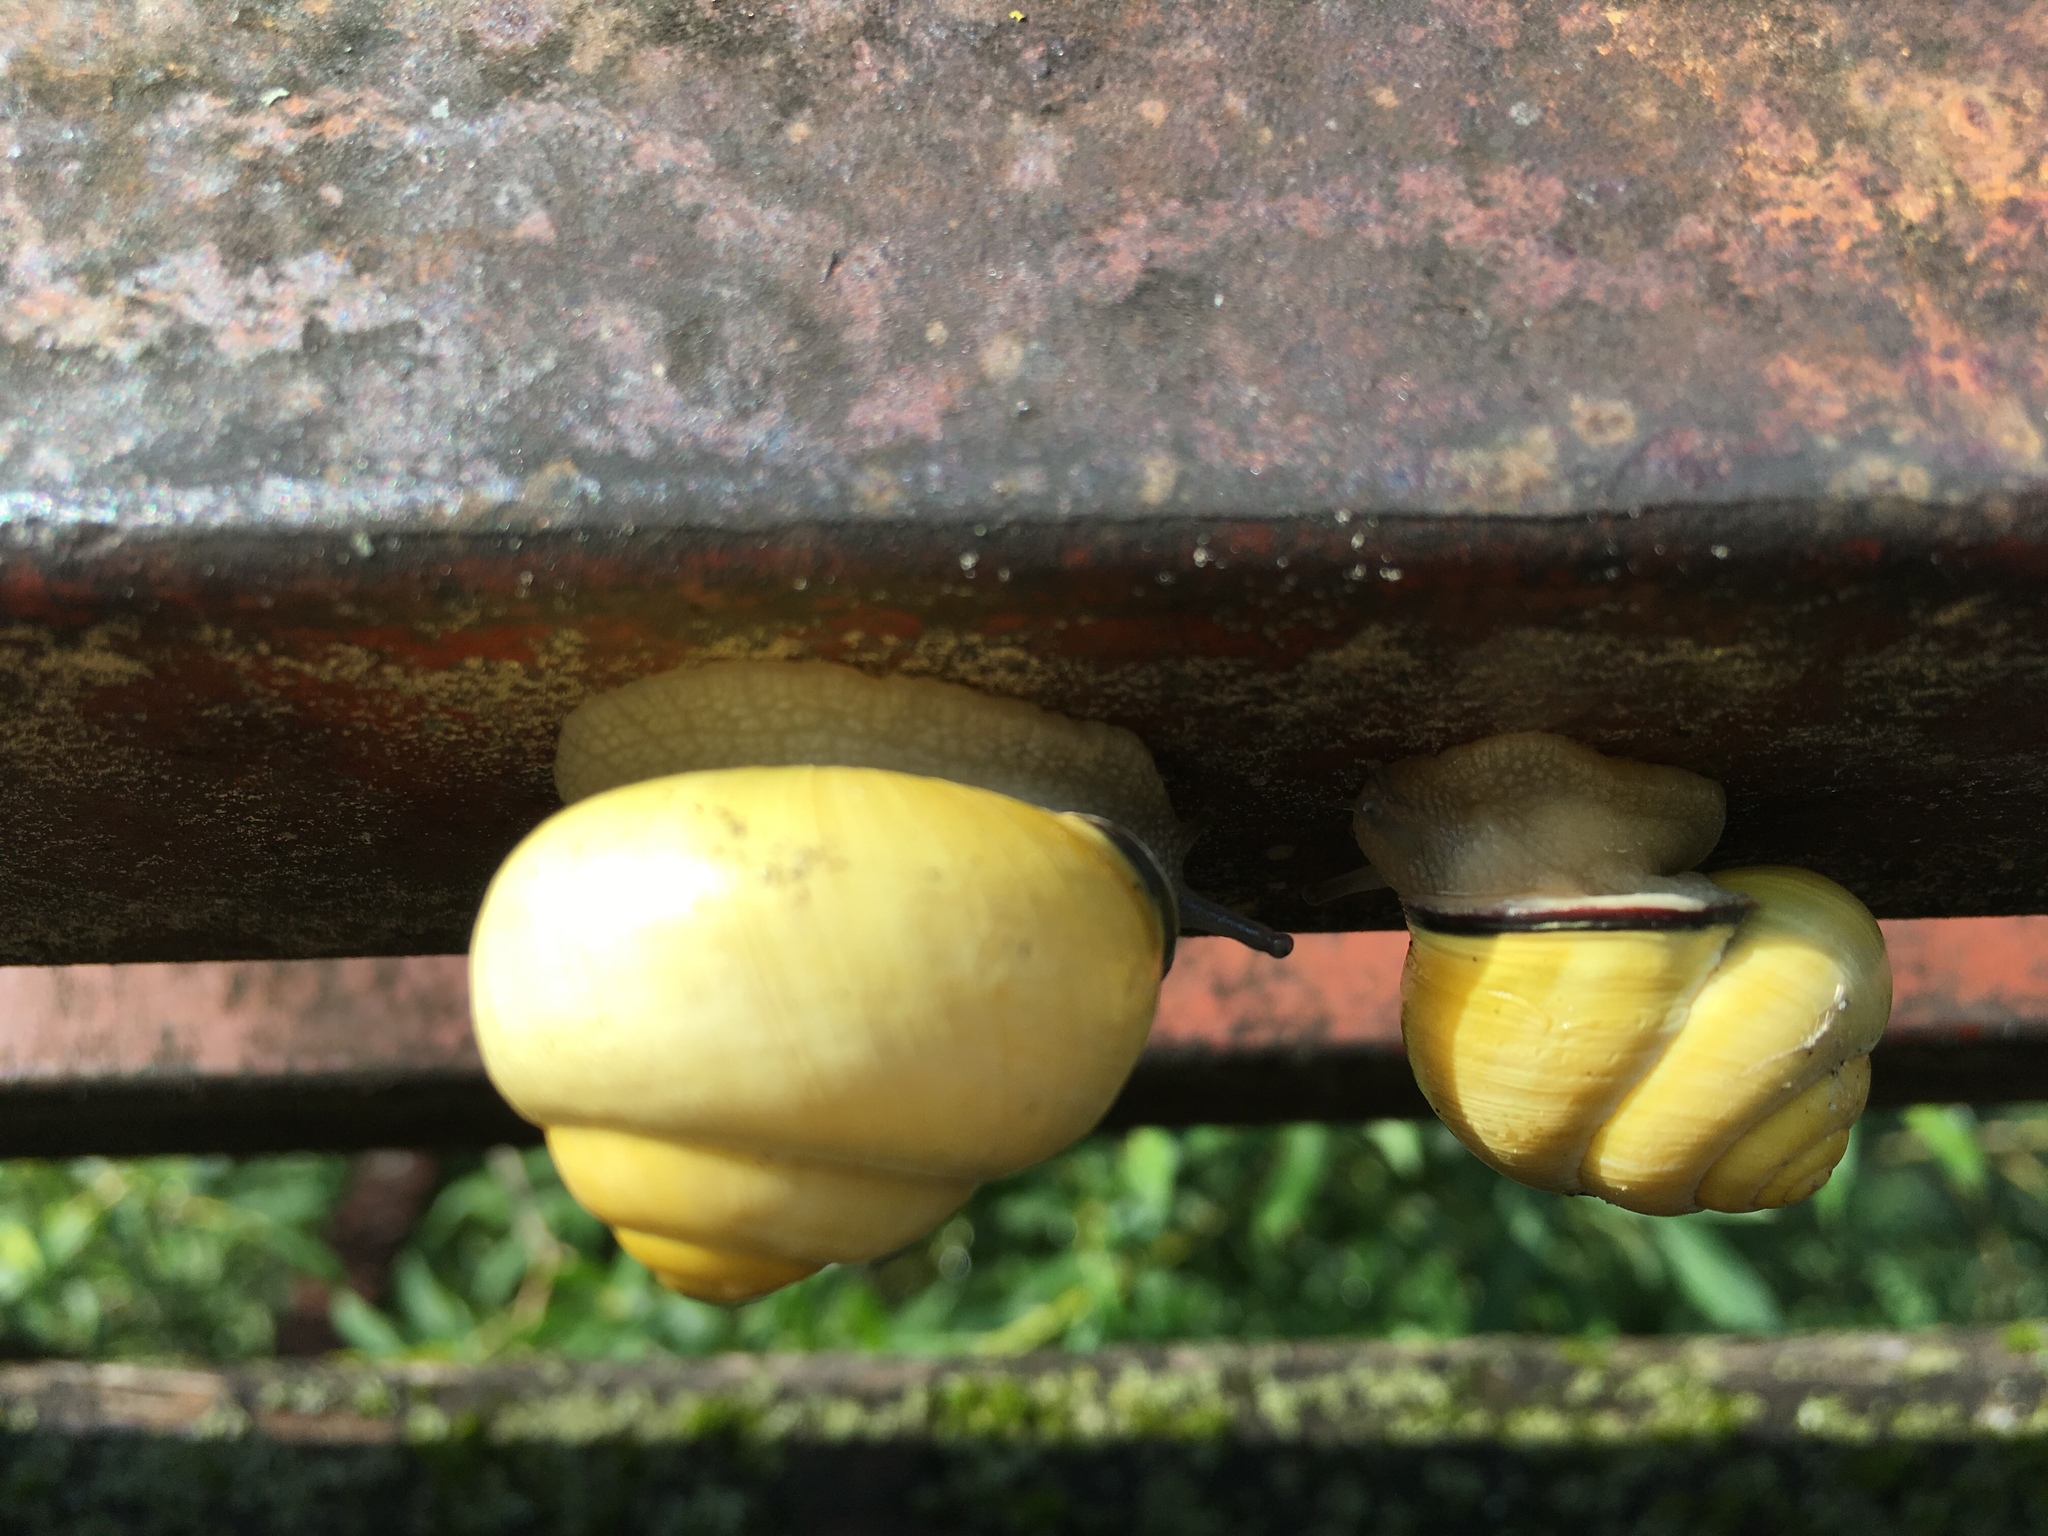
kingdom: Animalia
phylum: Mollusca
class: Gastropoda
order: Stylommatophora
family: Helicidae
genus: Cepaea
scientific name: Cepaea nemoralis
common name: Grovesnail
